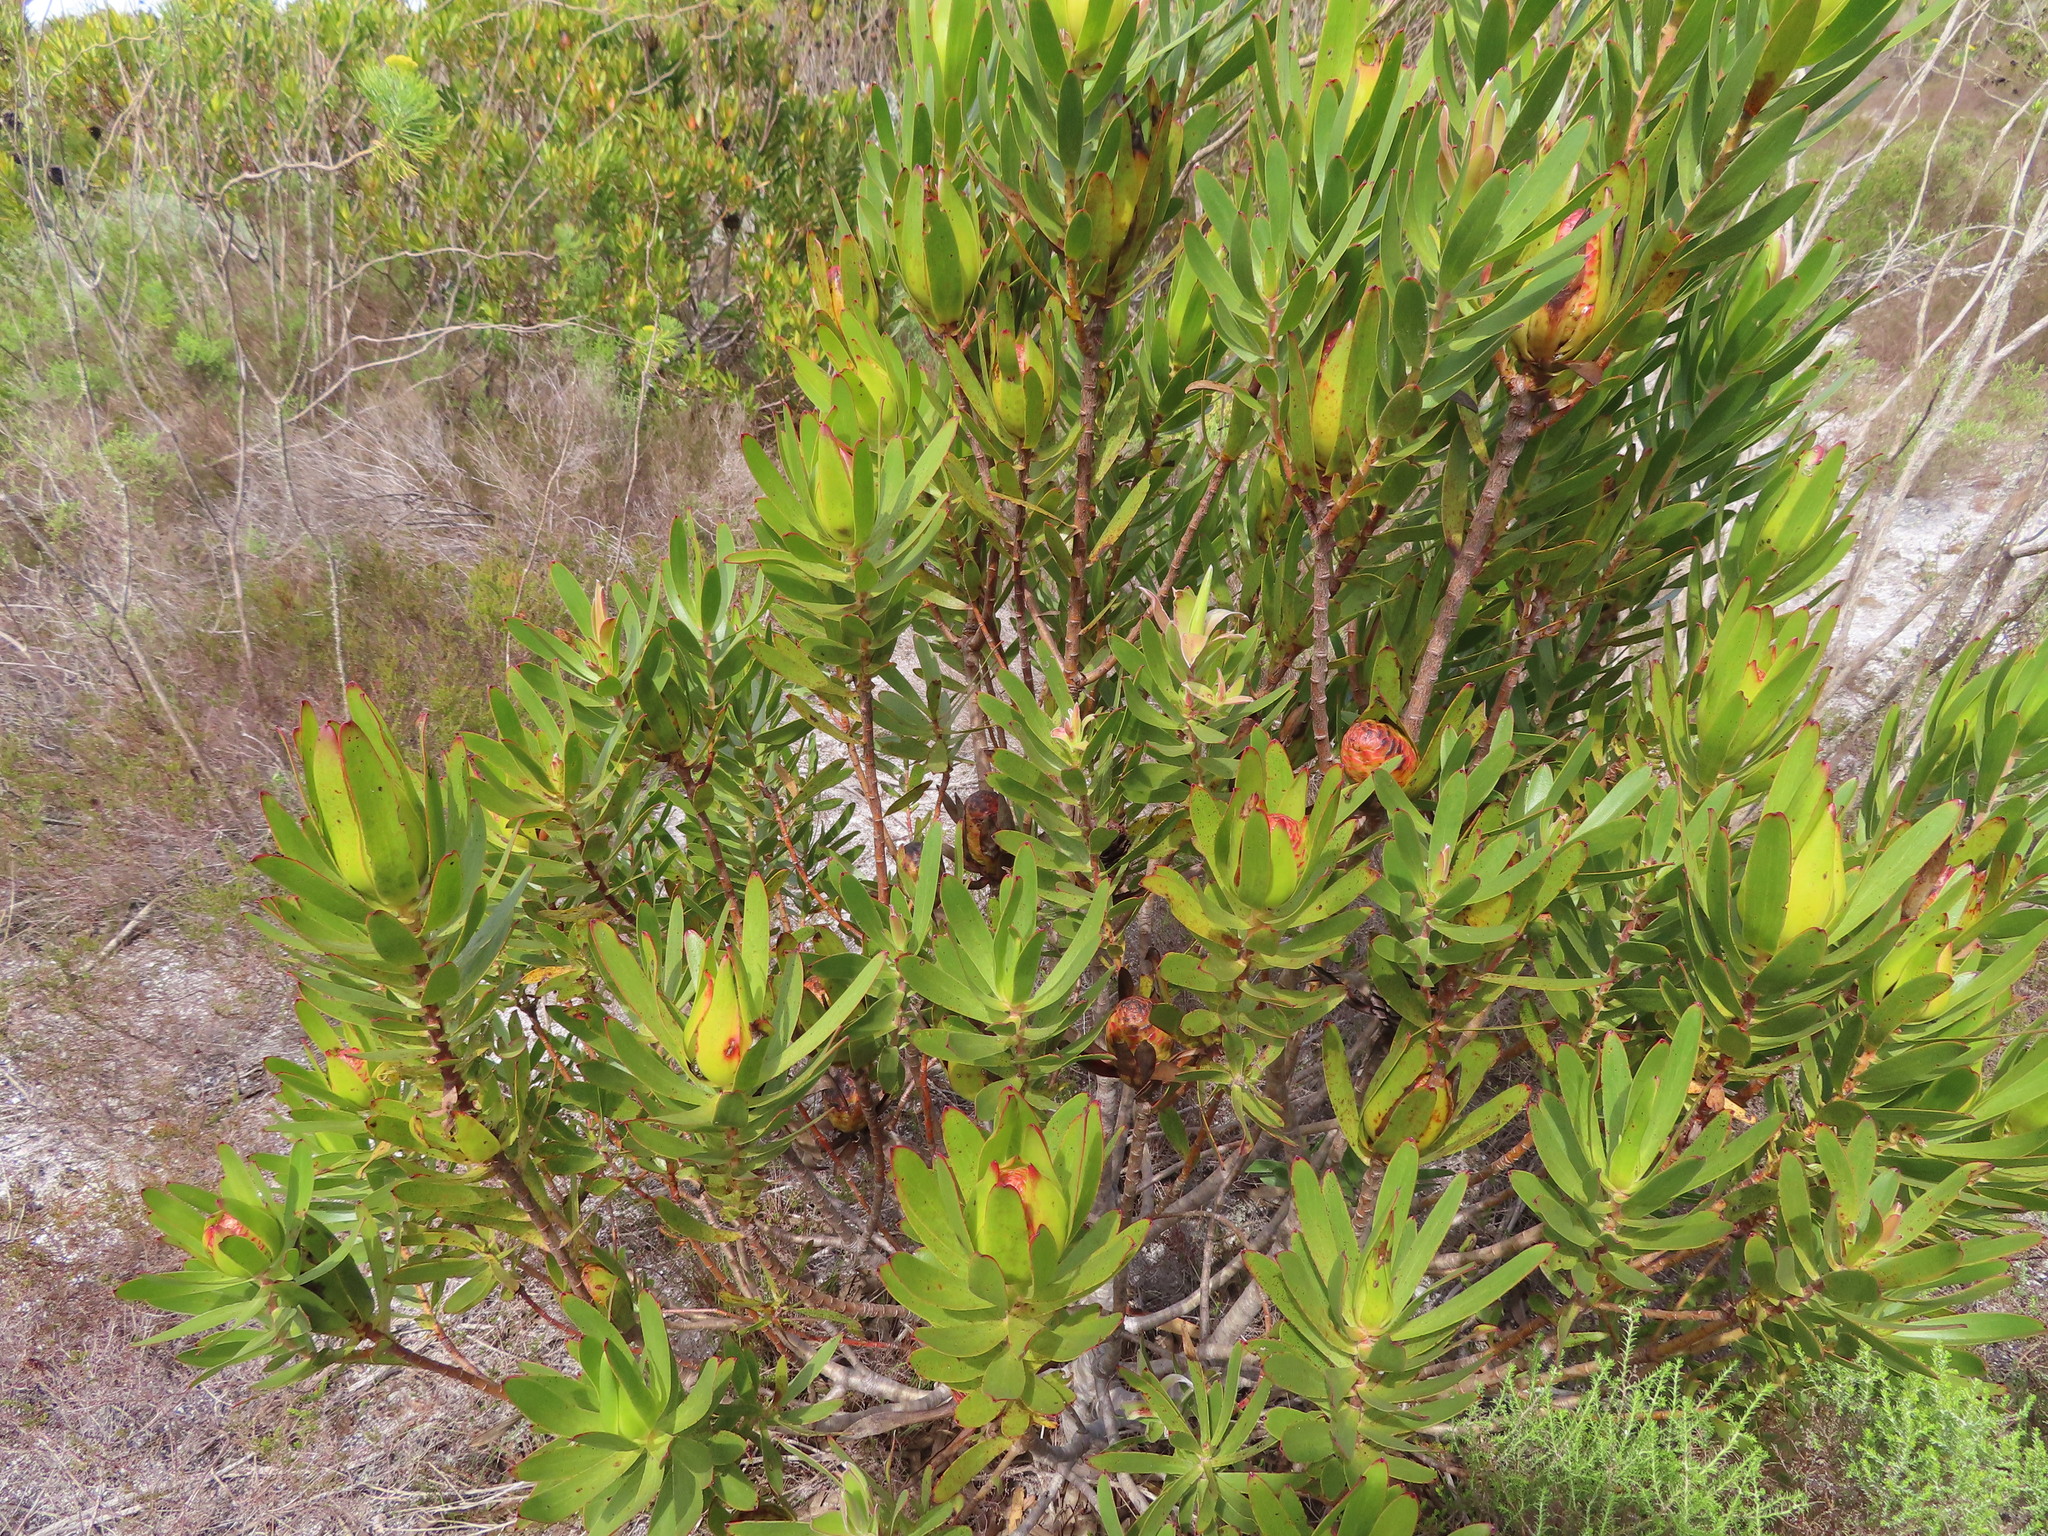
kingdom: Plantae
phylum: Tracheophyta
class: Magnoliopsida
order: Proteales
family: Proteaceae
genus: Leucadendron
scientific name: Leucadendron laureolum
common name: Golden sunshinebush
